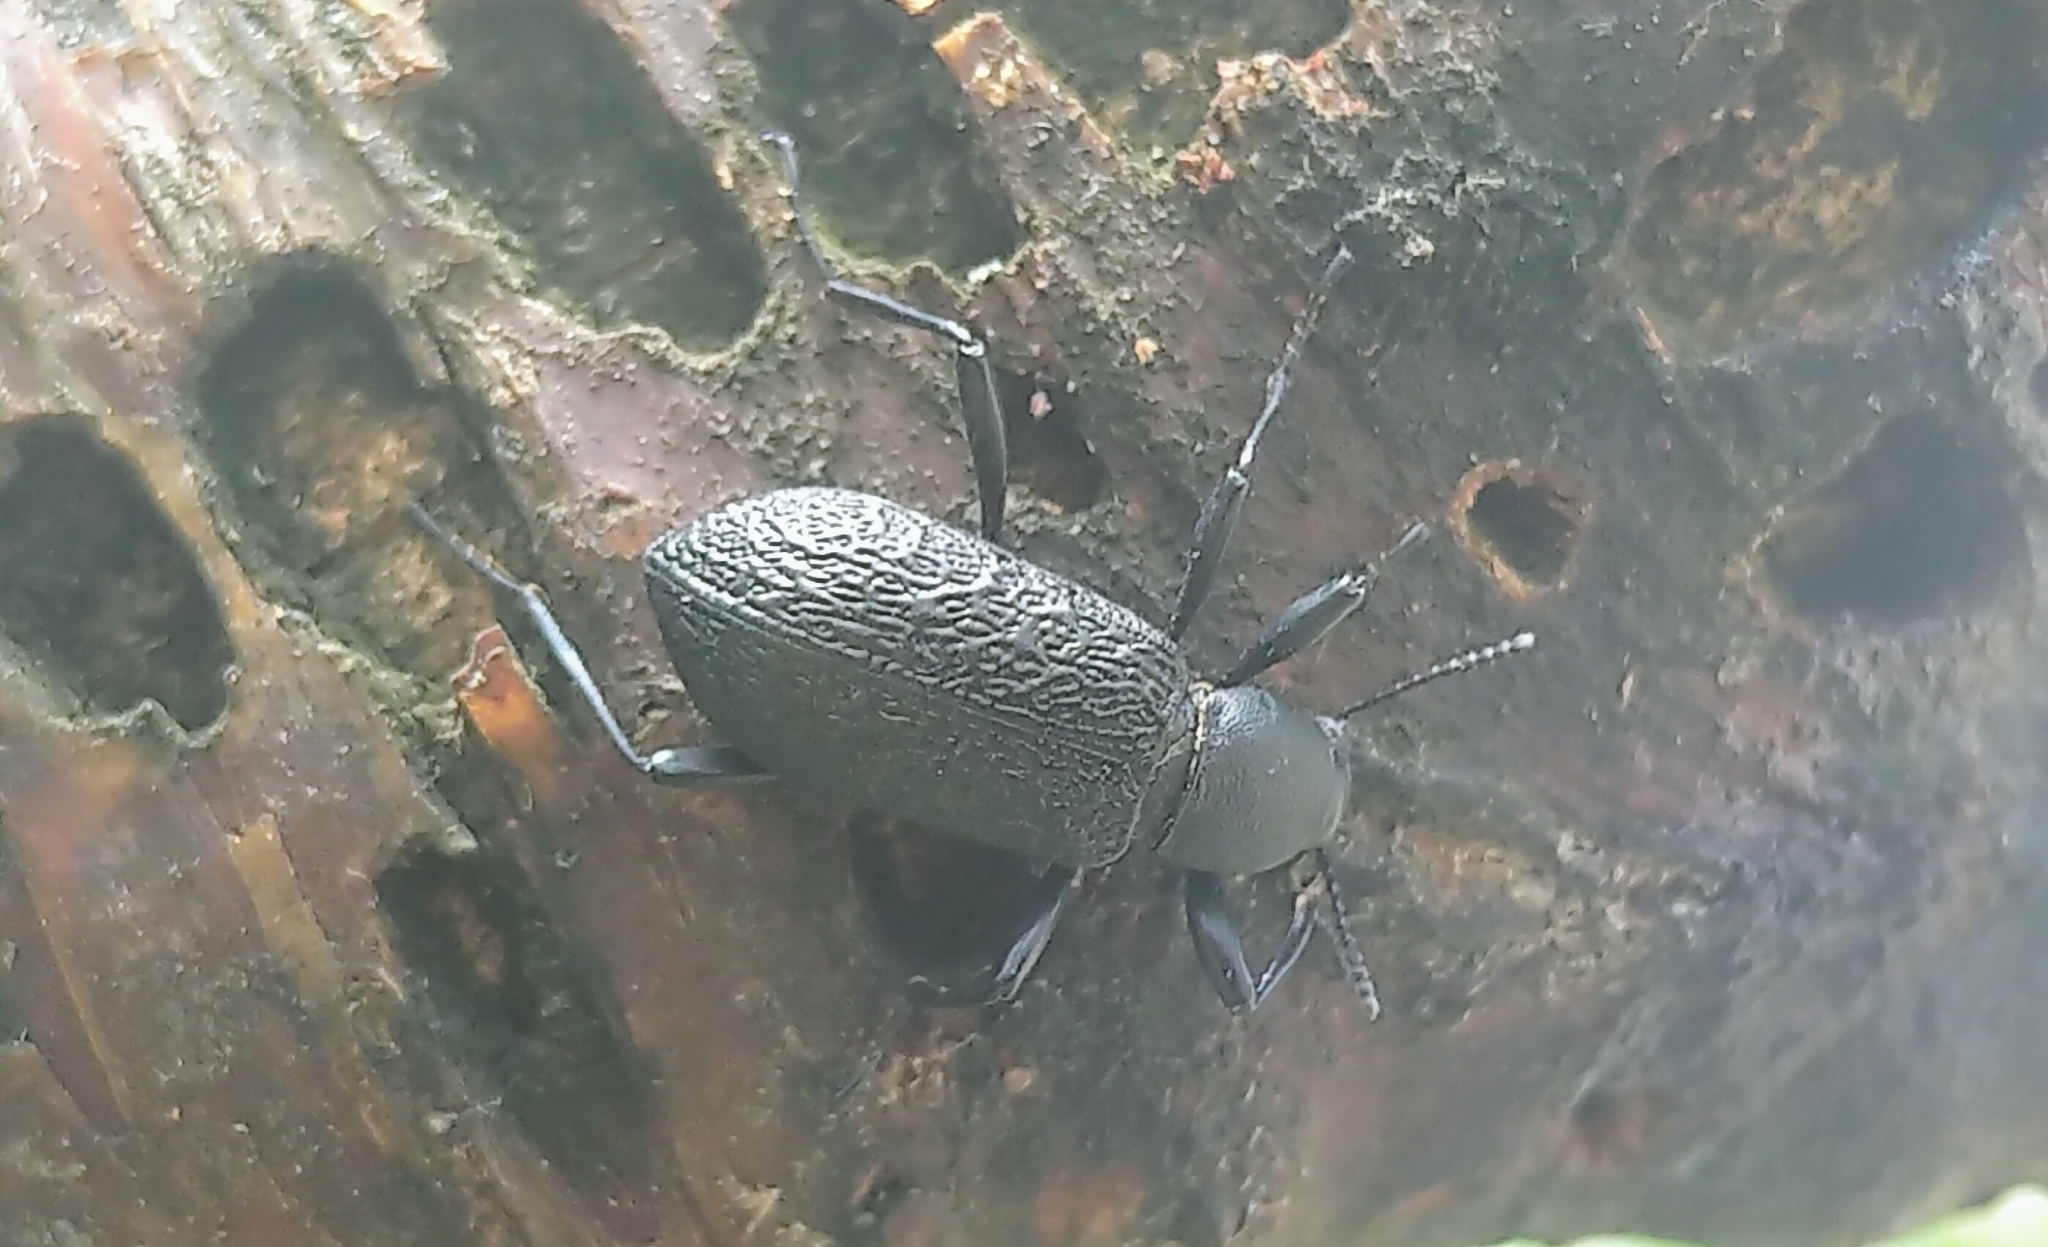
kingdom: Animalia
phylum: Arthropoda
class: Insecta
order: Coleoptera
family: Tenebrionidae
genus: Upis
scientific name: Upis ceramboides
